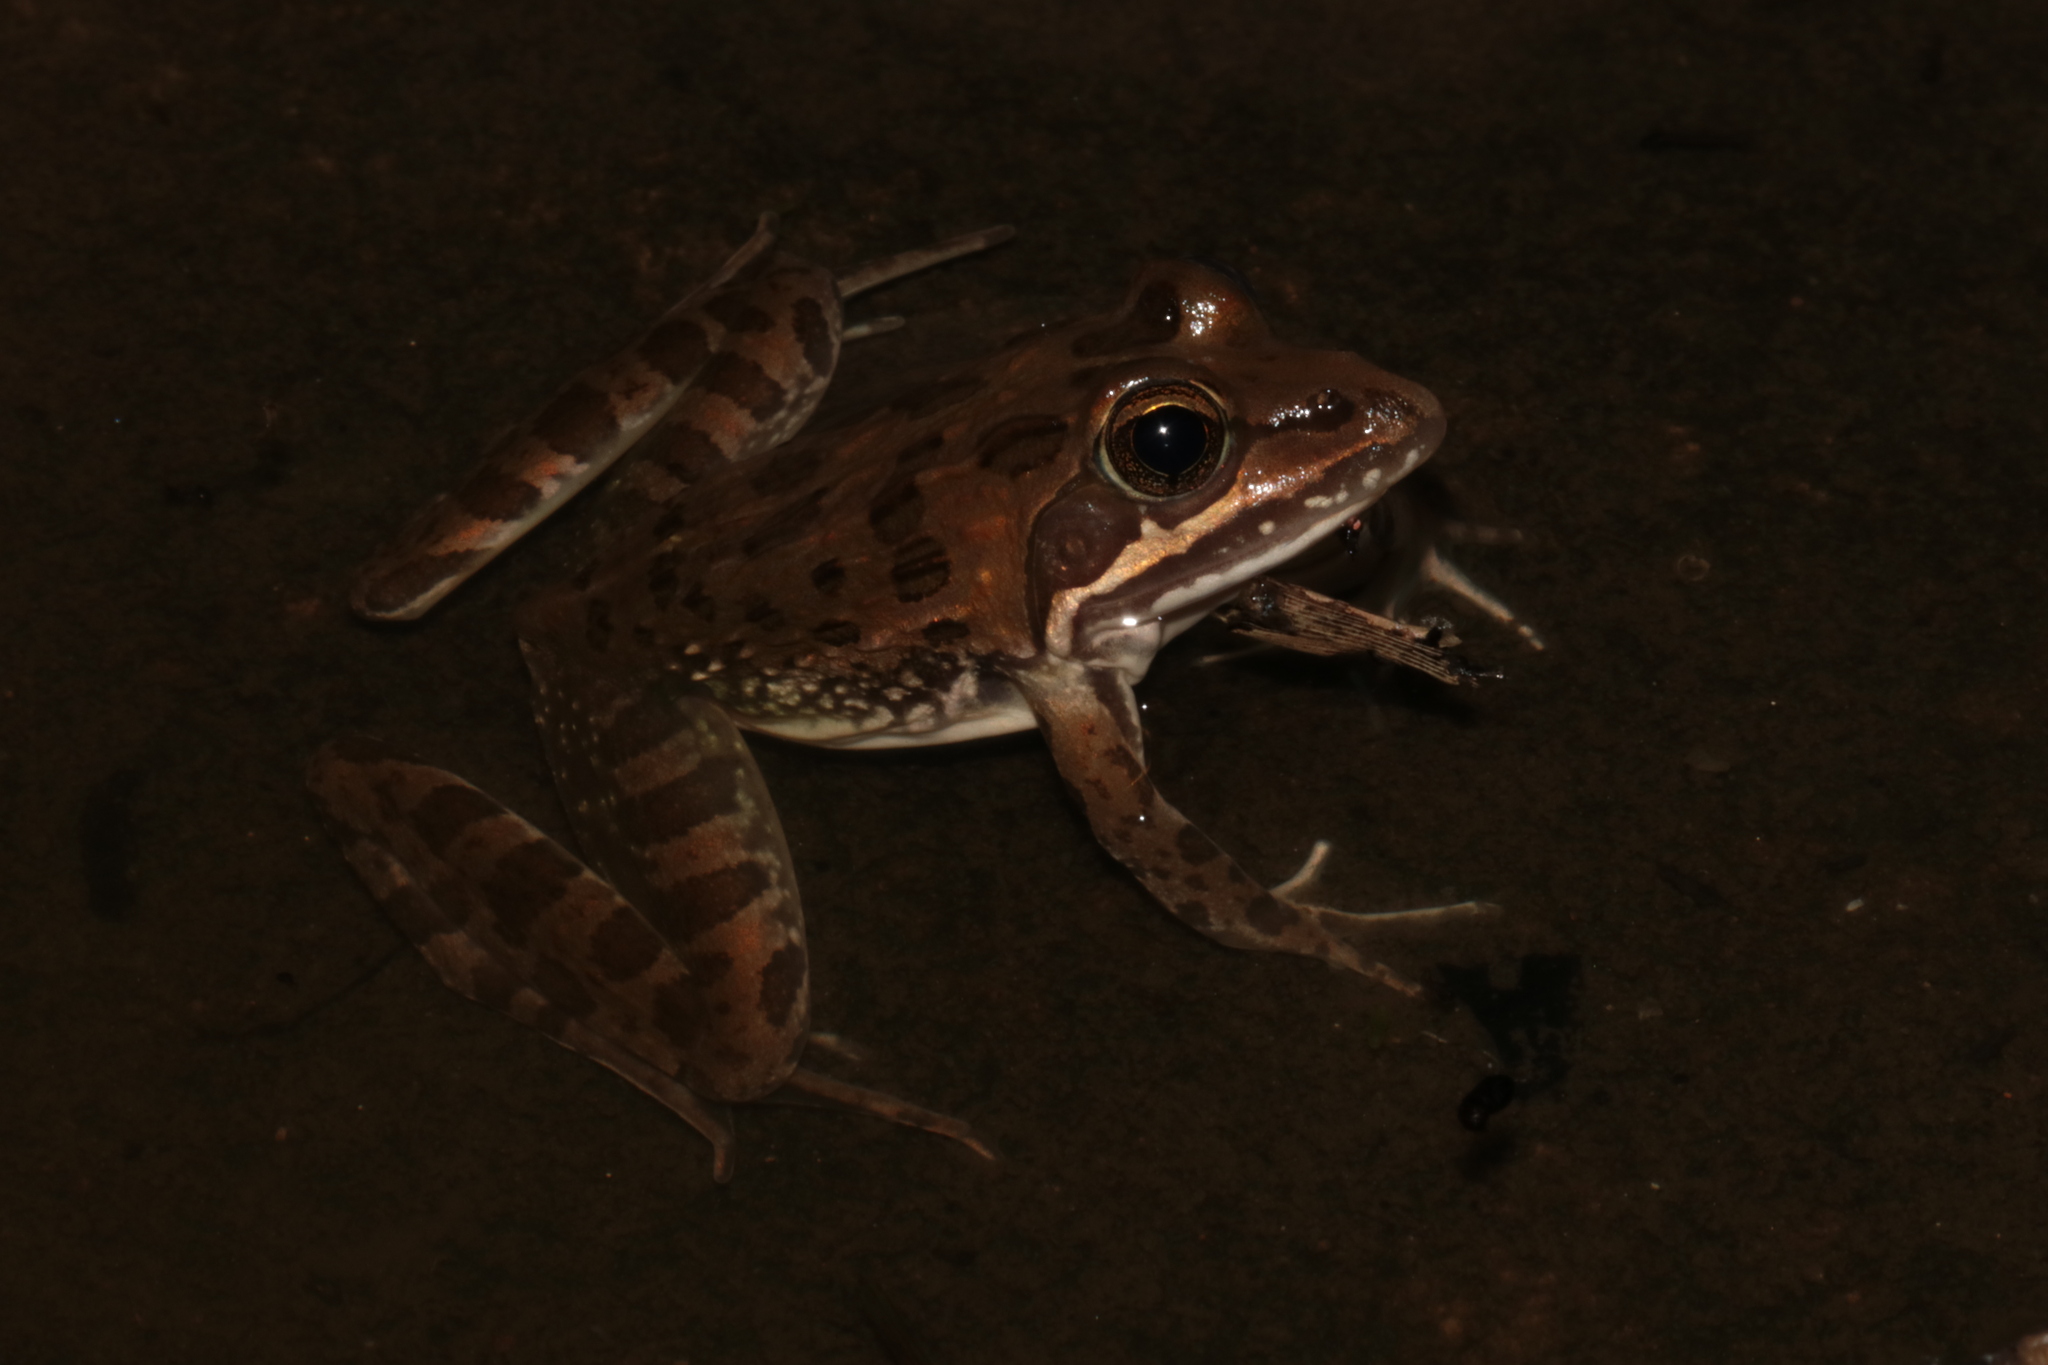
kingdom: Animalia
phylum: Chordata
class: Amphibia
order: Anura
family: Pyxicephalidae
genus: Amietia
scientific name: Amietia delalandii
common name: Delalande's river frog
